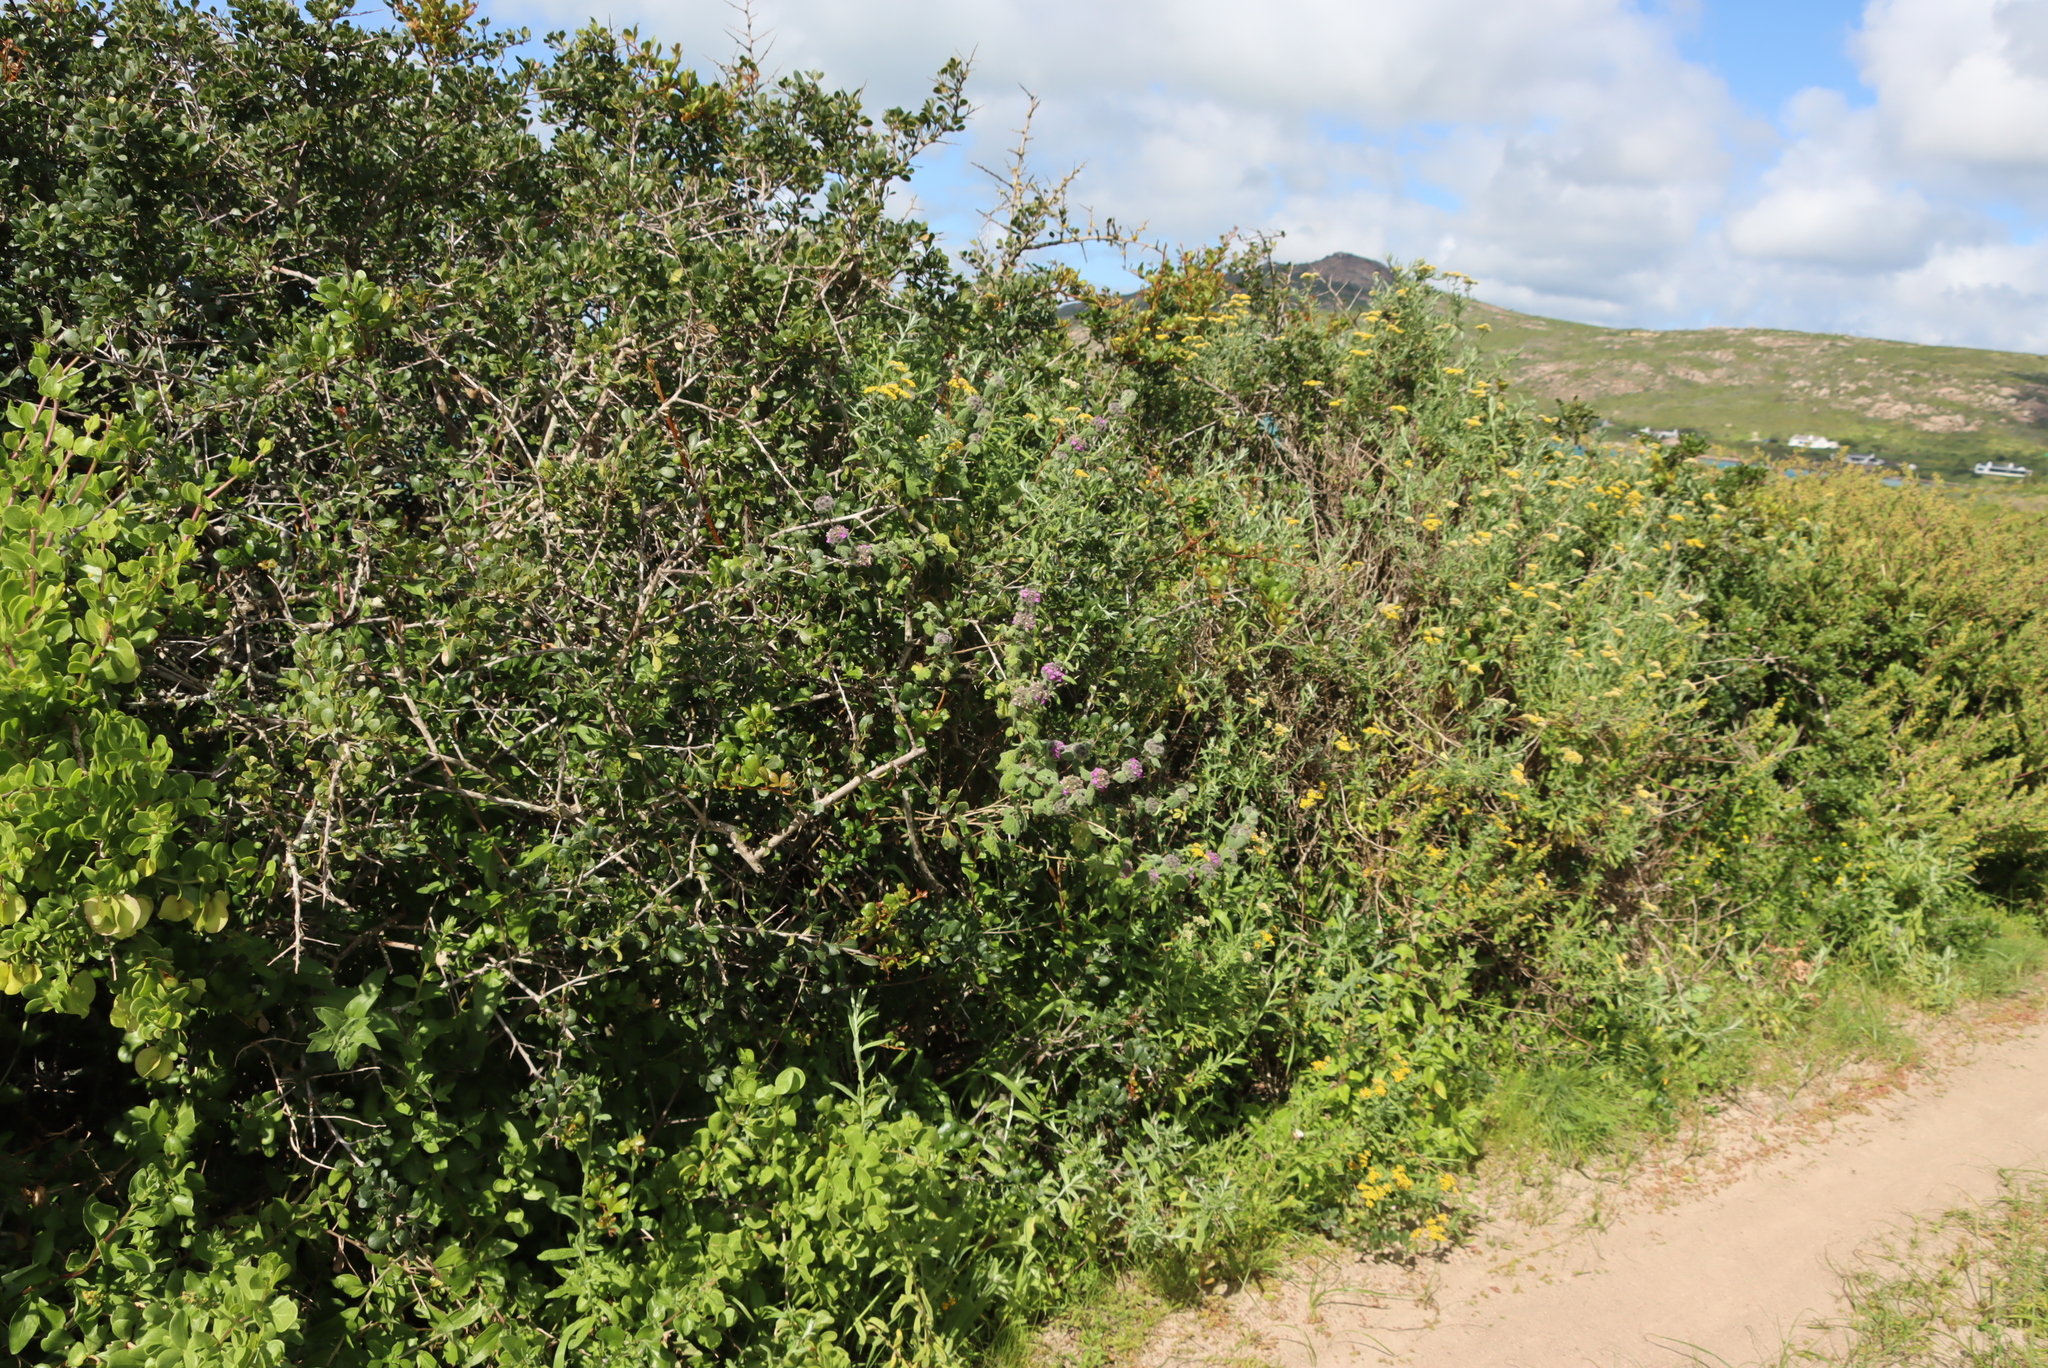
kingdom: Plantae
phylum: Tracheophyta
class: Magnoliopsida
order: Lamiales
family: Lamiaceae
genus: Pseudodictamnus
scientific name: Pseudodictamnus africanus
